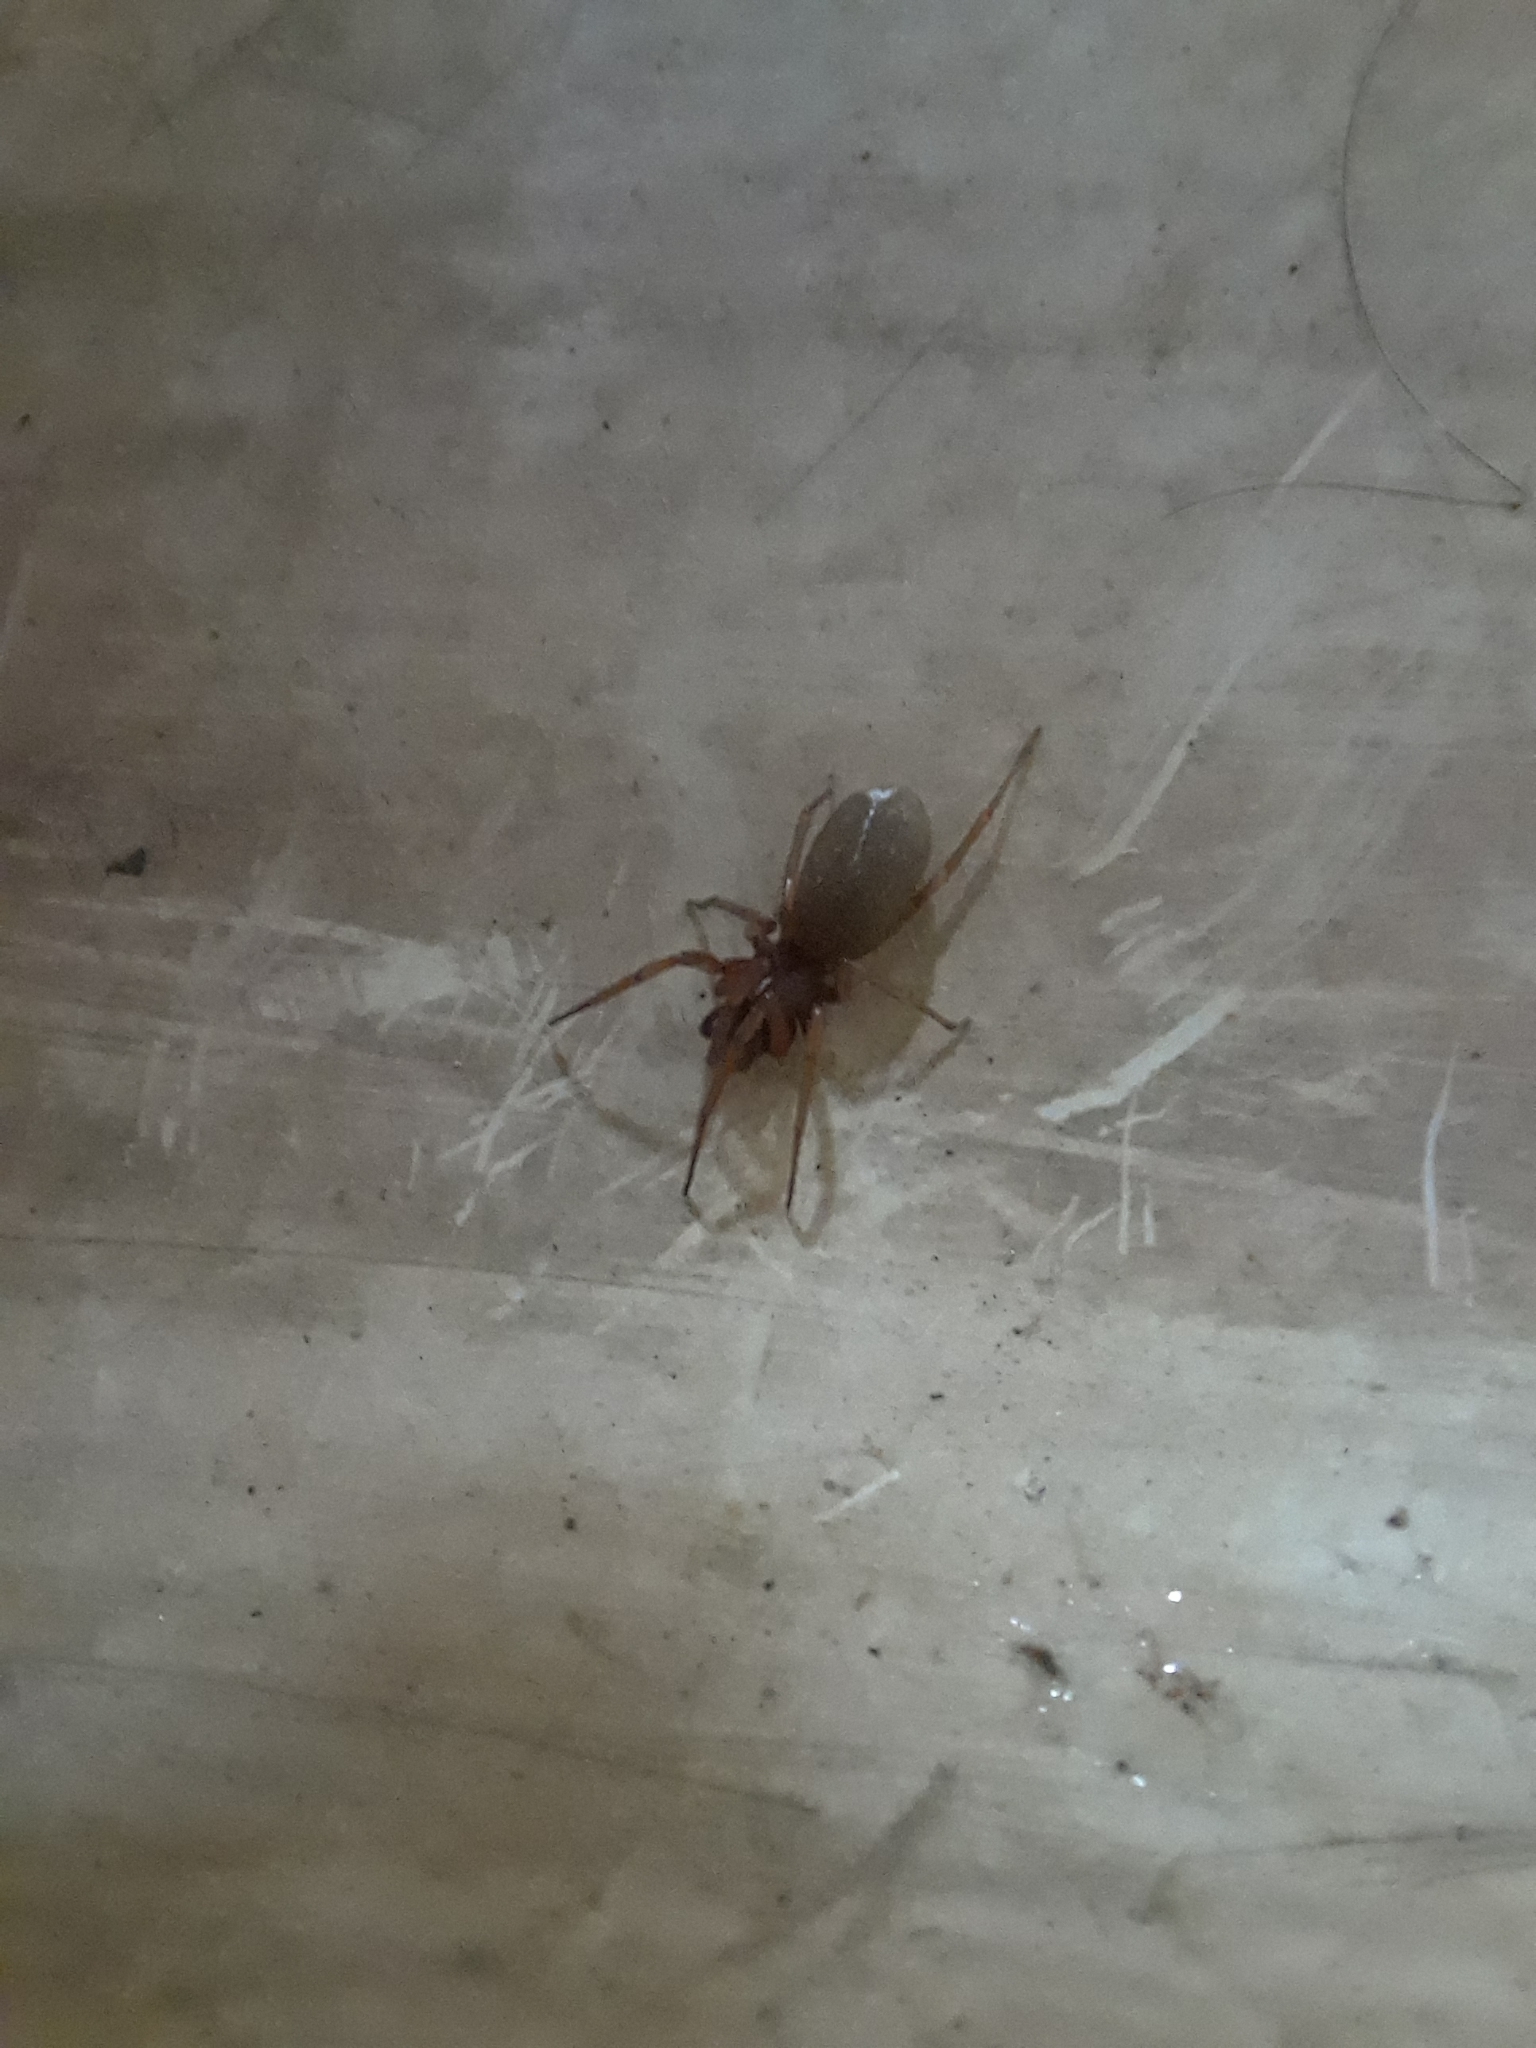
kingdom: Animalia
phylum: Arthropoda
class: Arachnida
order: Araneae
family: Dysderidae
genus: Dysdera
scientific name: Dysdera crocata
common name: Woodlouse spider
